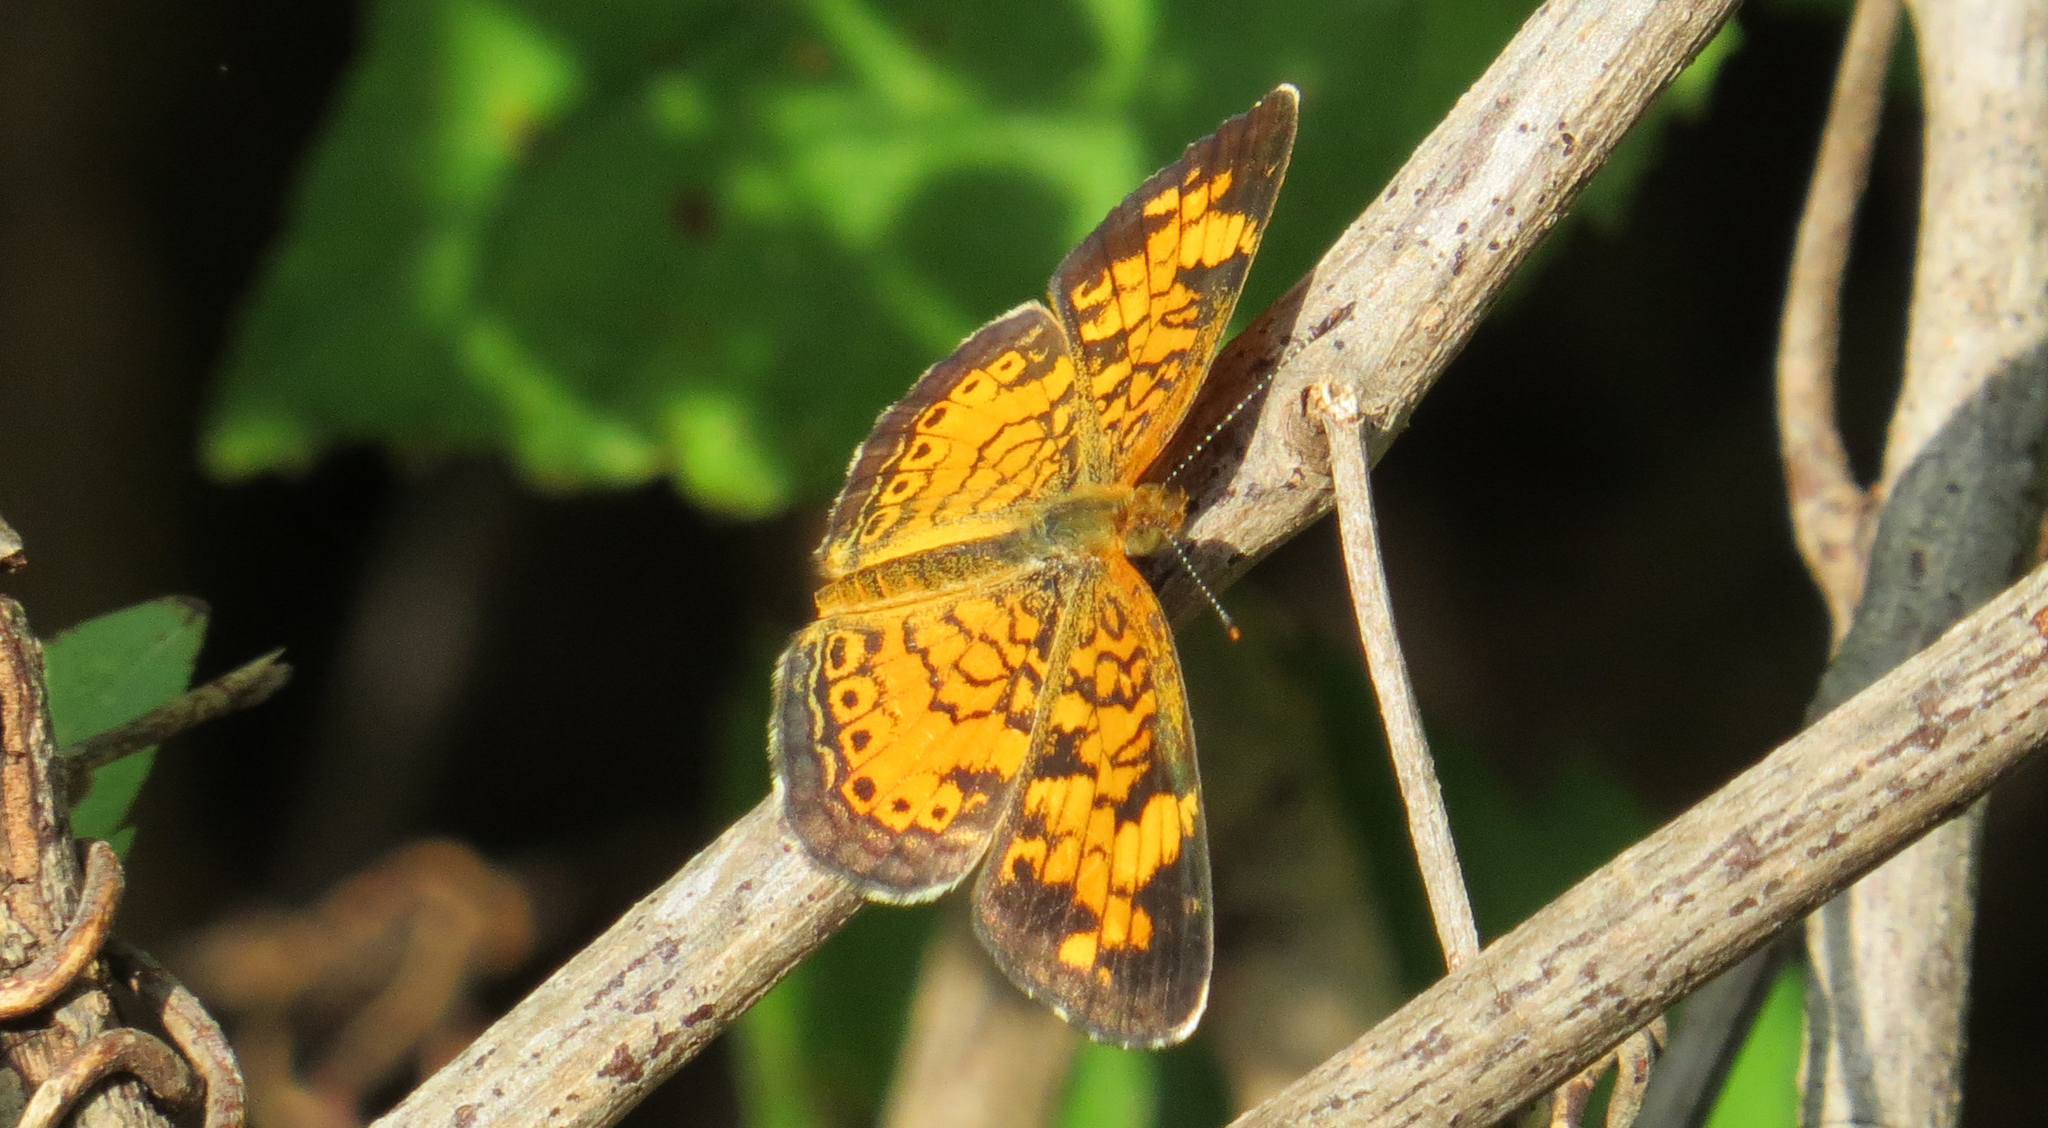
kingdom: Animalia
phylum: Arthropoda
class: Insecta
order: Lepidoptera
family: Nymphalidae
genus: Phyciodes
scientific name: Phyciodes tharos
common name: Pearl crescent
